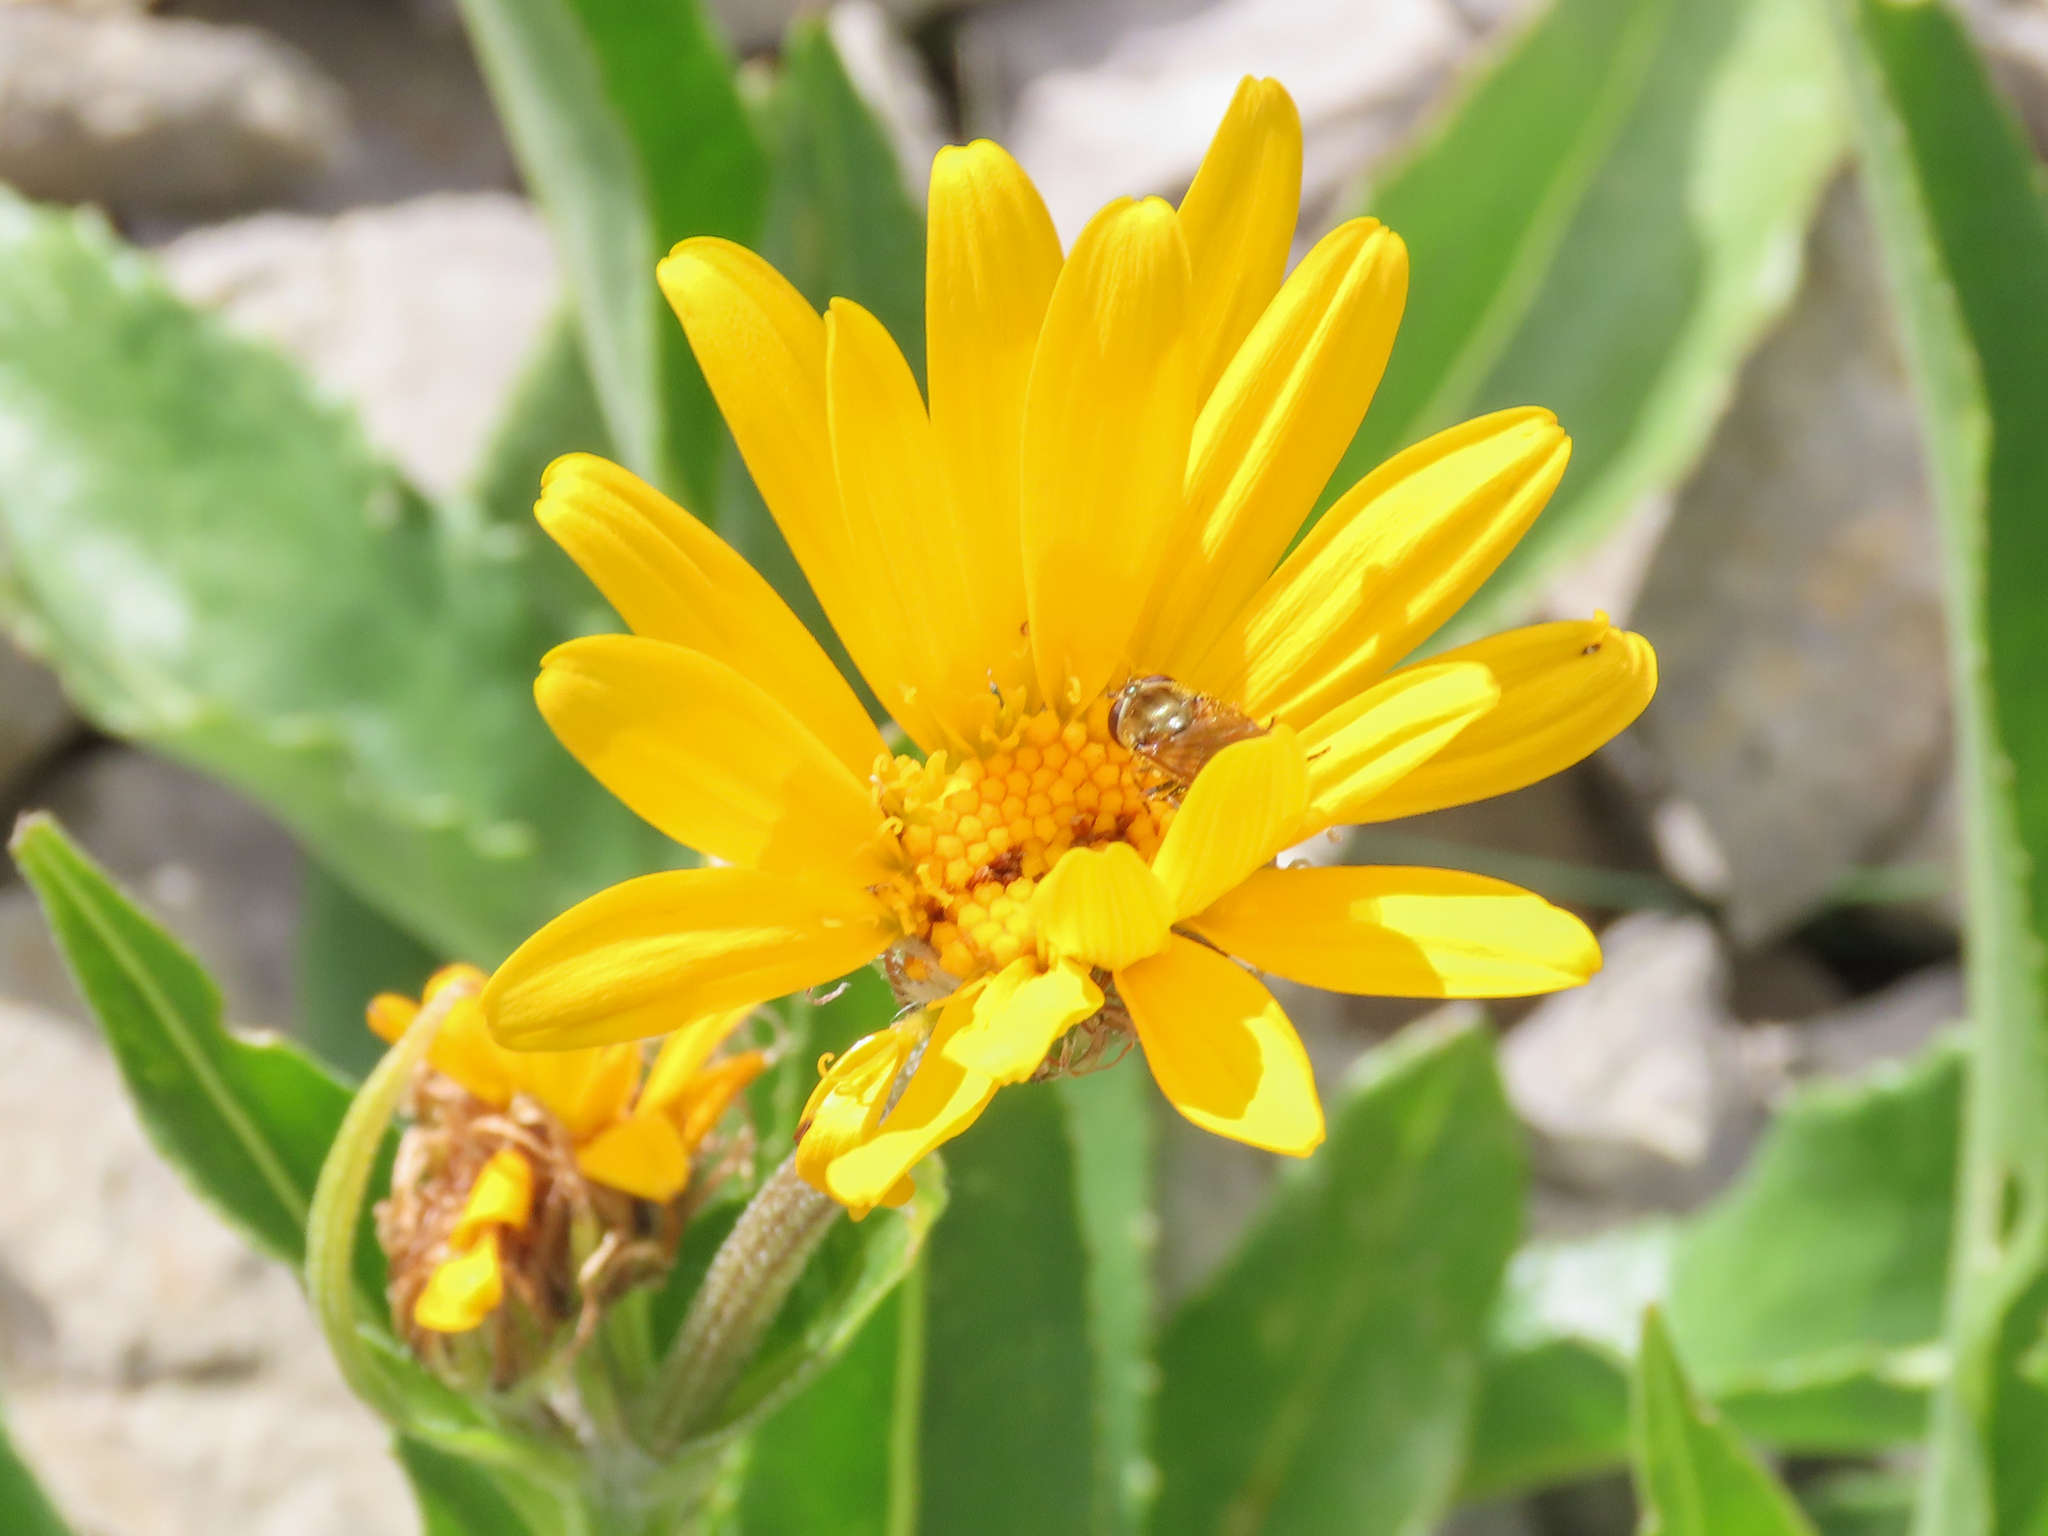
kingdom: Plantae
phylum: Tracheophyta
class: Magnoliopsida
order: Asterales
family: Asteraceae
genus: Senecio
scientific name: Senecio doronicum
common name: Chamois ragwort
